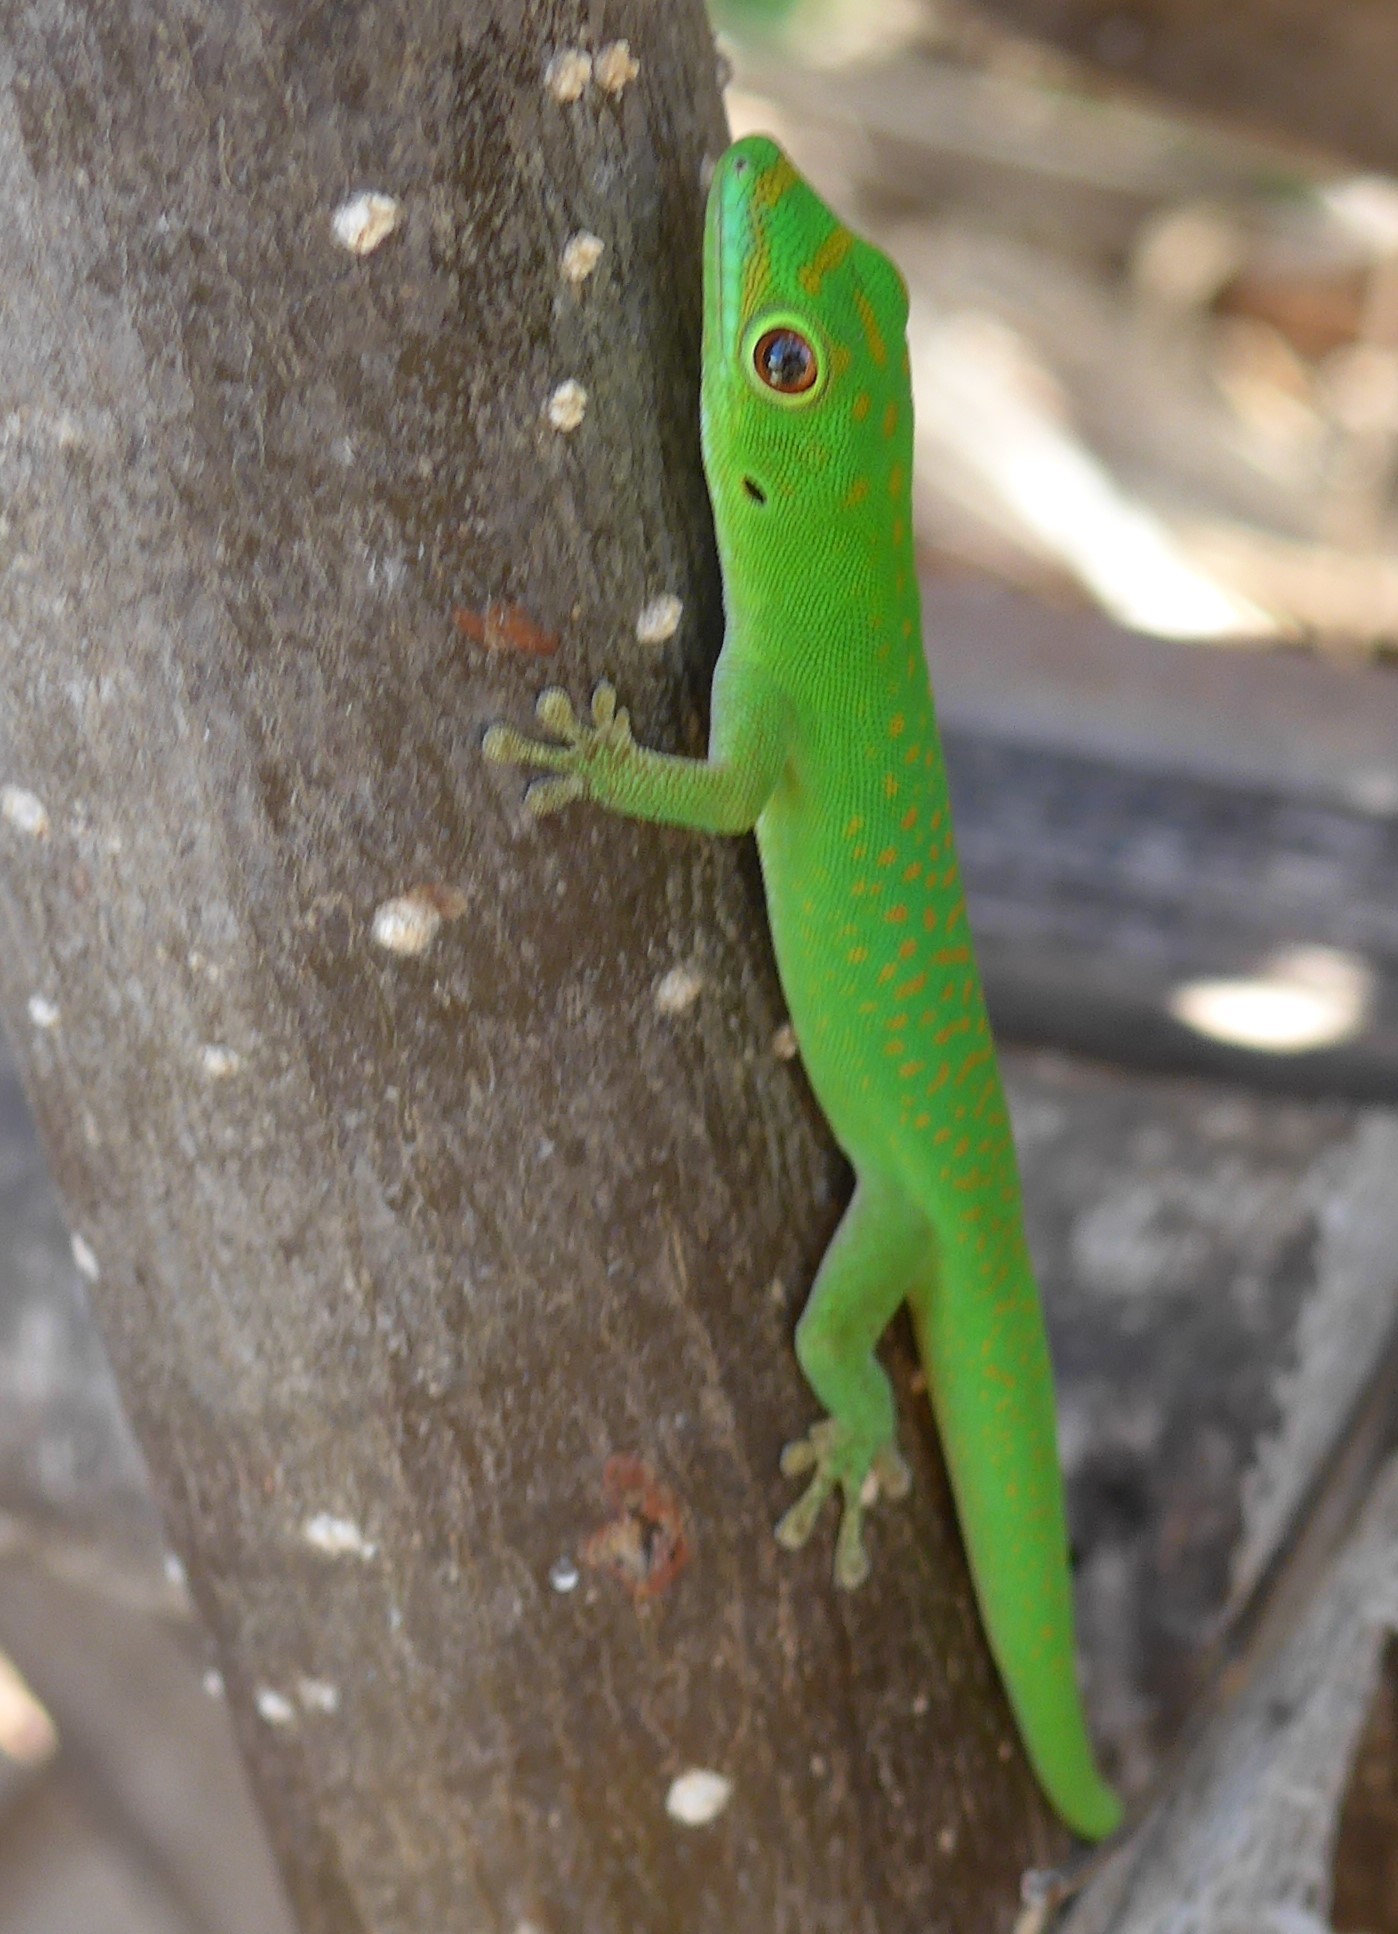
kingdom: Animalia
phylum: Chordata
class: Squamata
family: Gekkonidae
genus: Phelsuma
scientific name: Phelsuma nigra
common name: Indian day gecko
